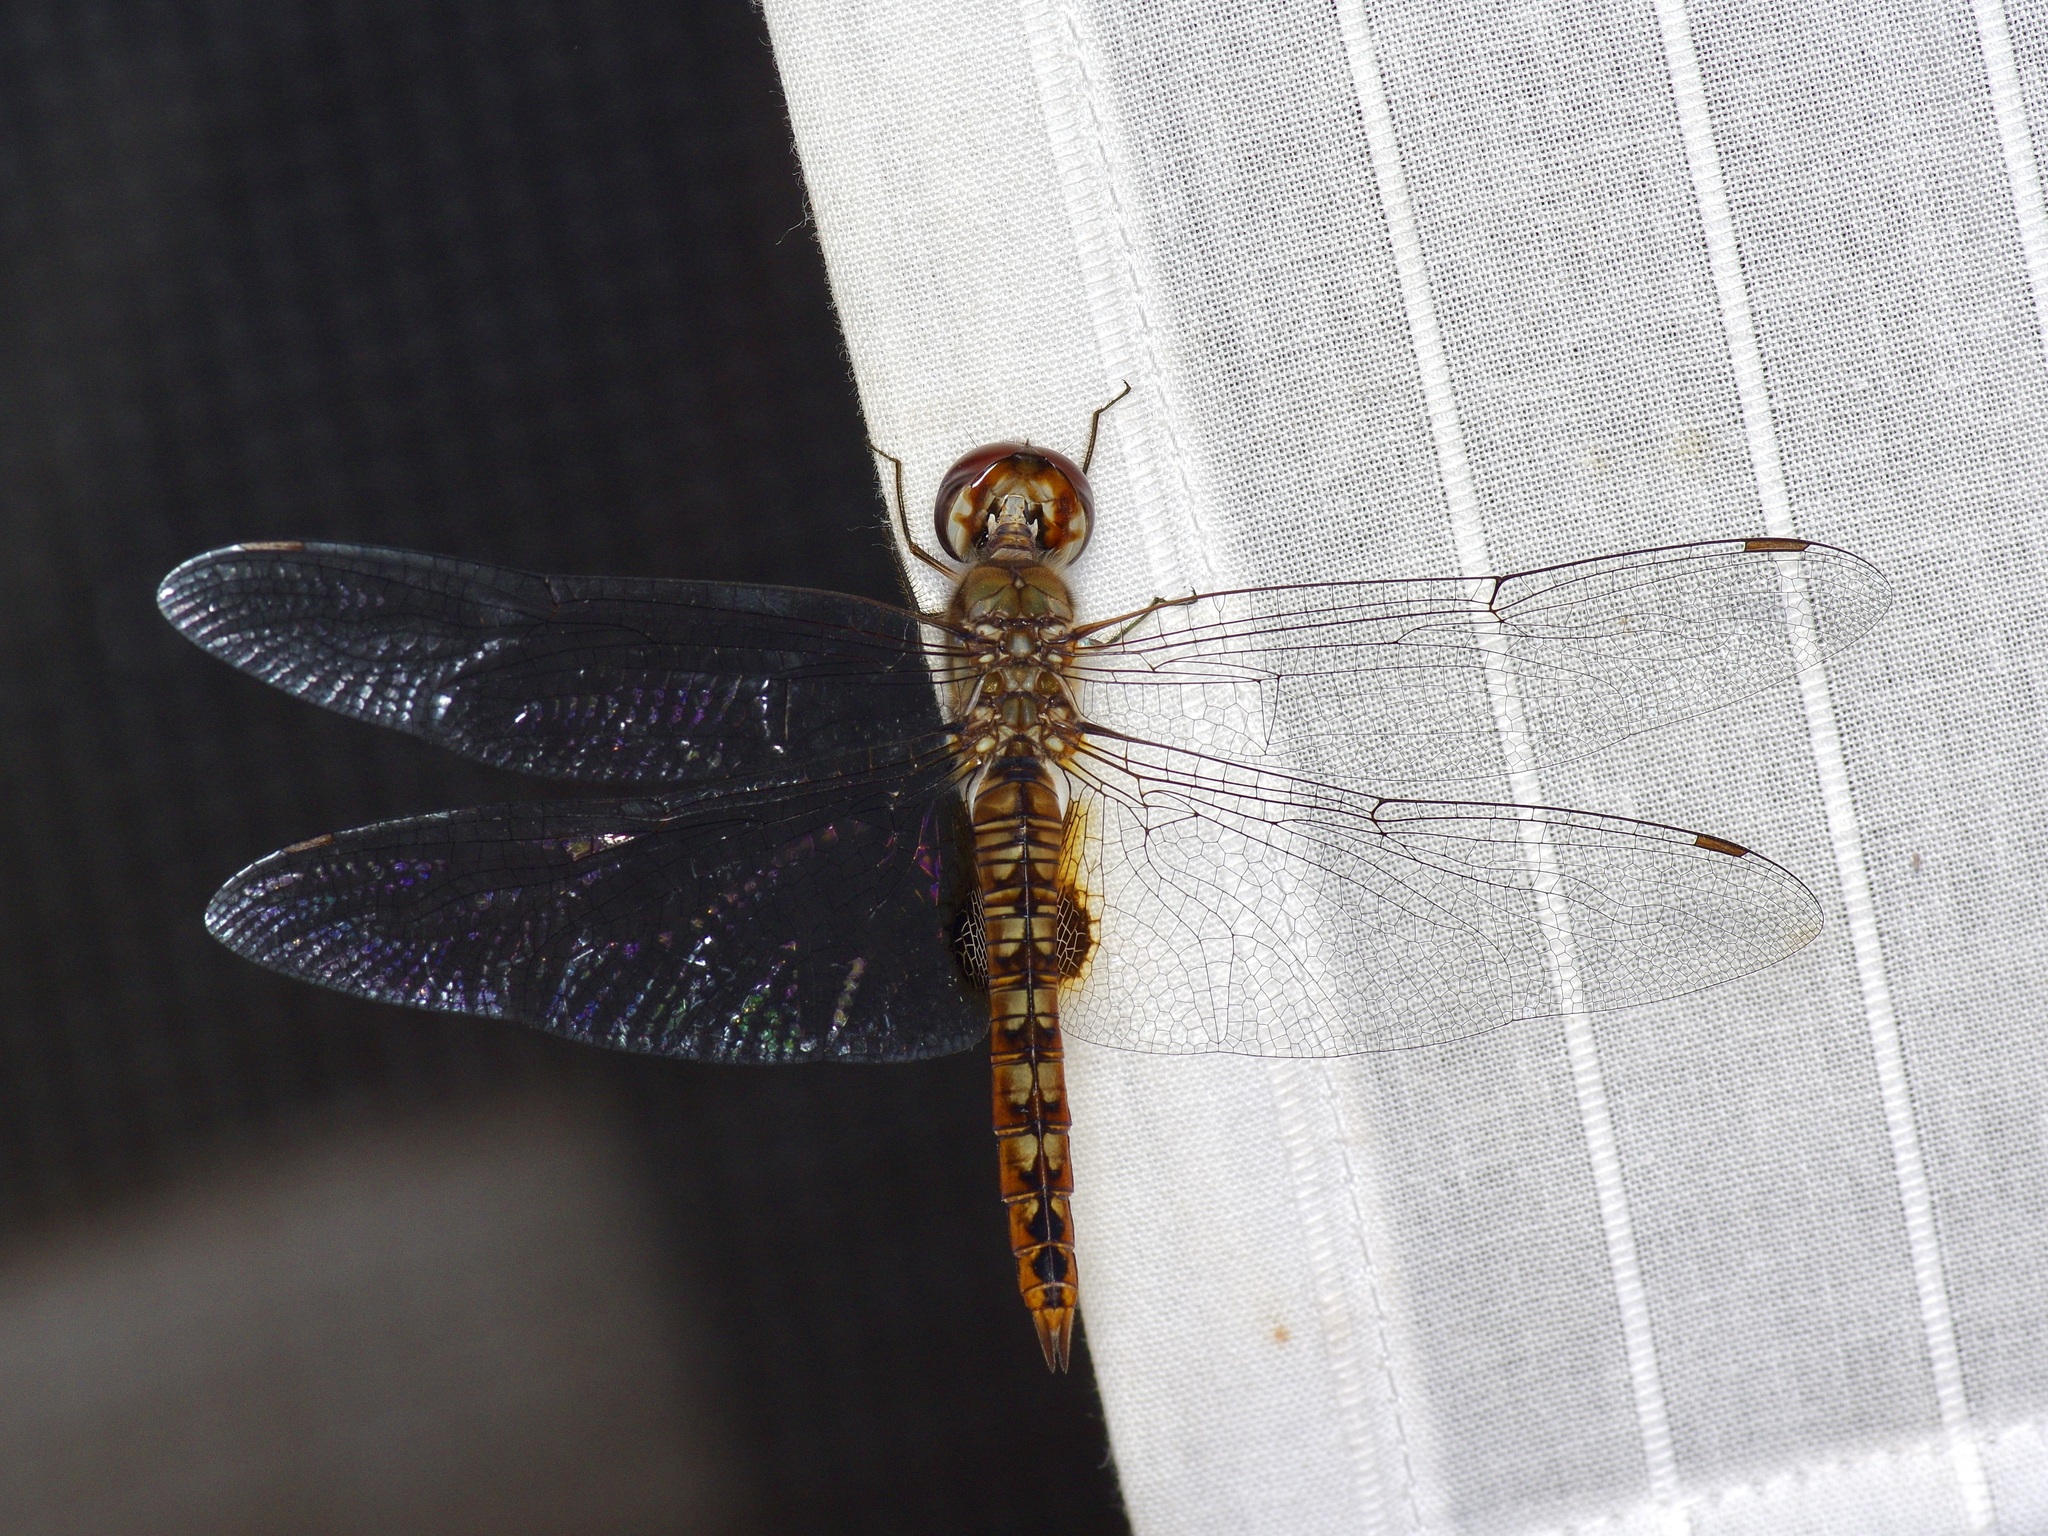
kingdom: Animalia
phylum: Arthropoda
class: Insecta
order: Odonata
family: Libellulidae
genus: Pantala
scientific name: Pantala hymenaea
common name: Spot-winged glider
